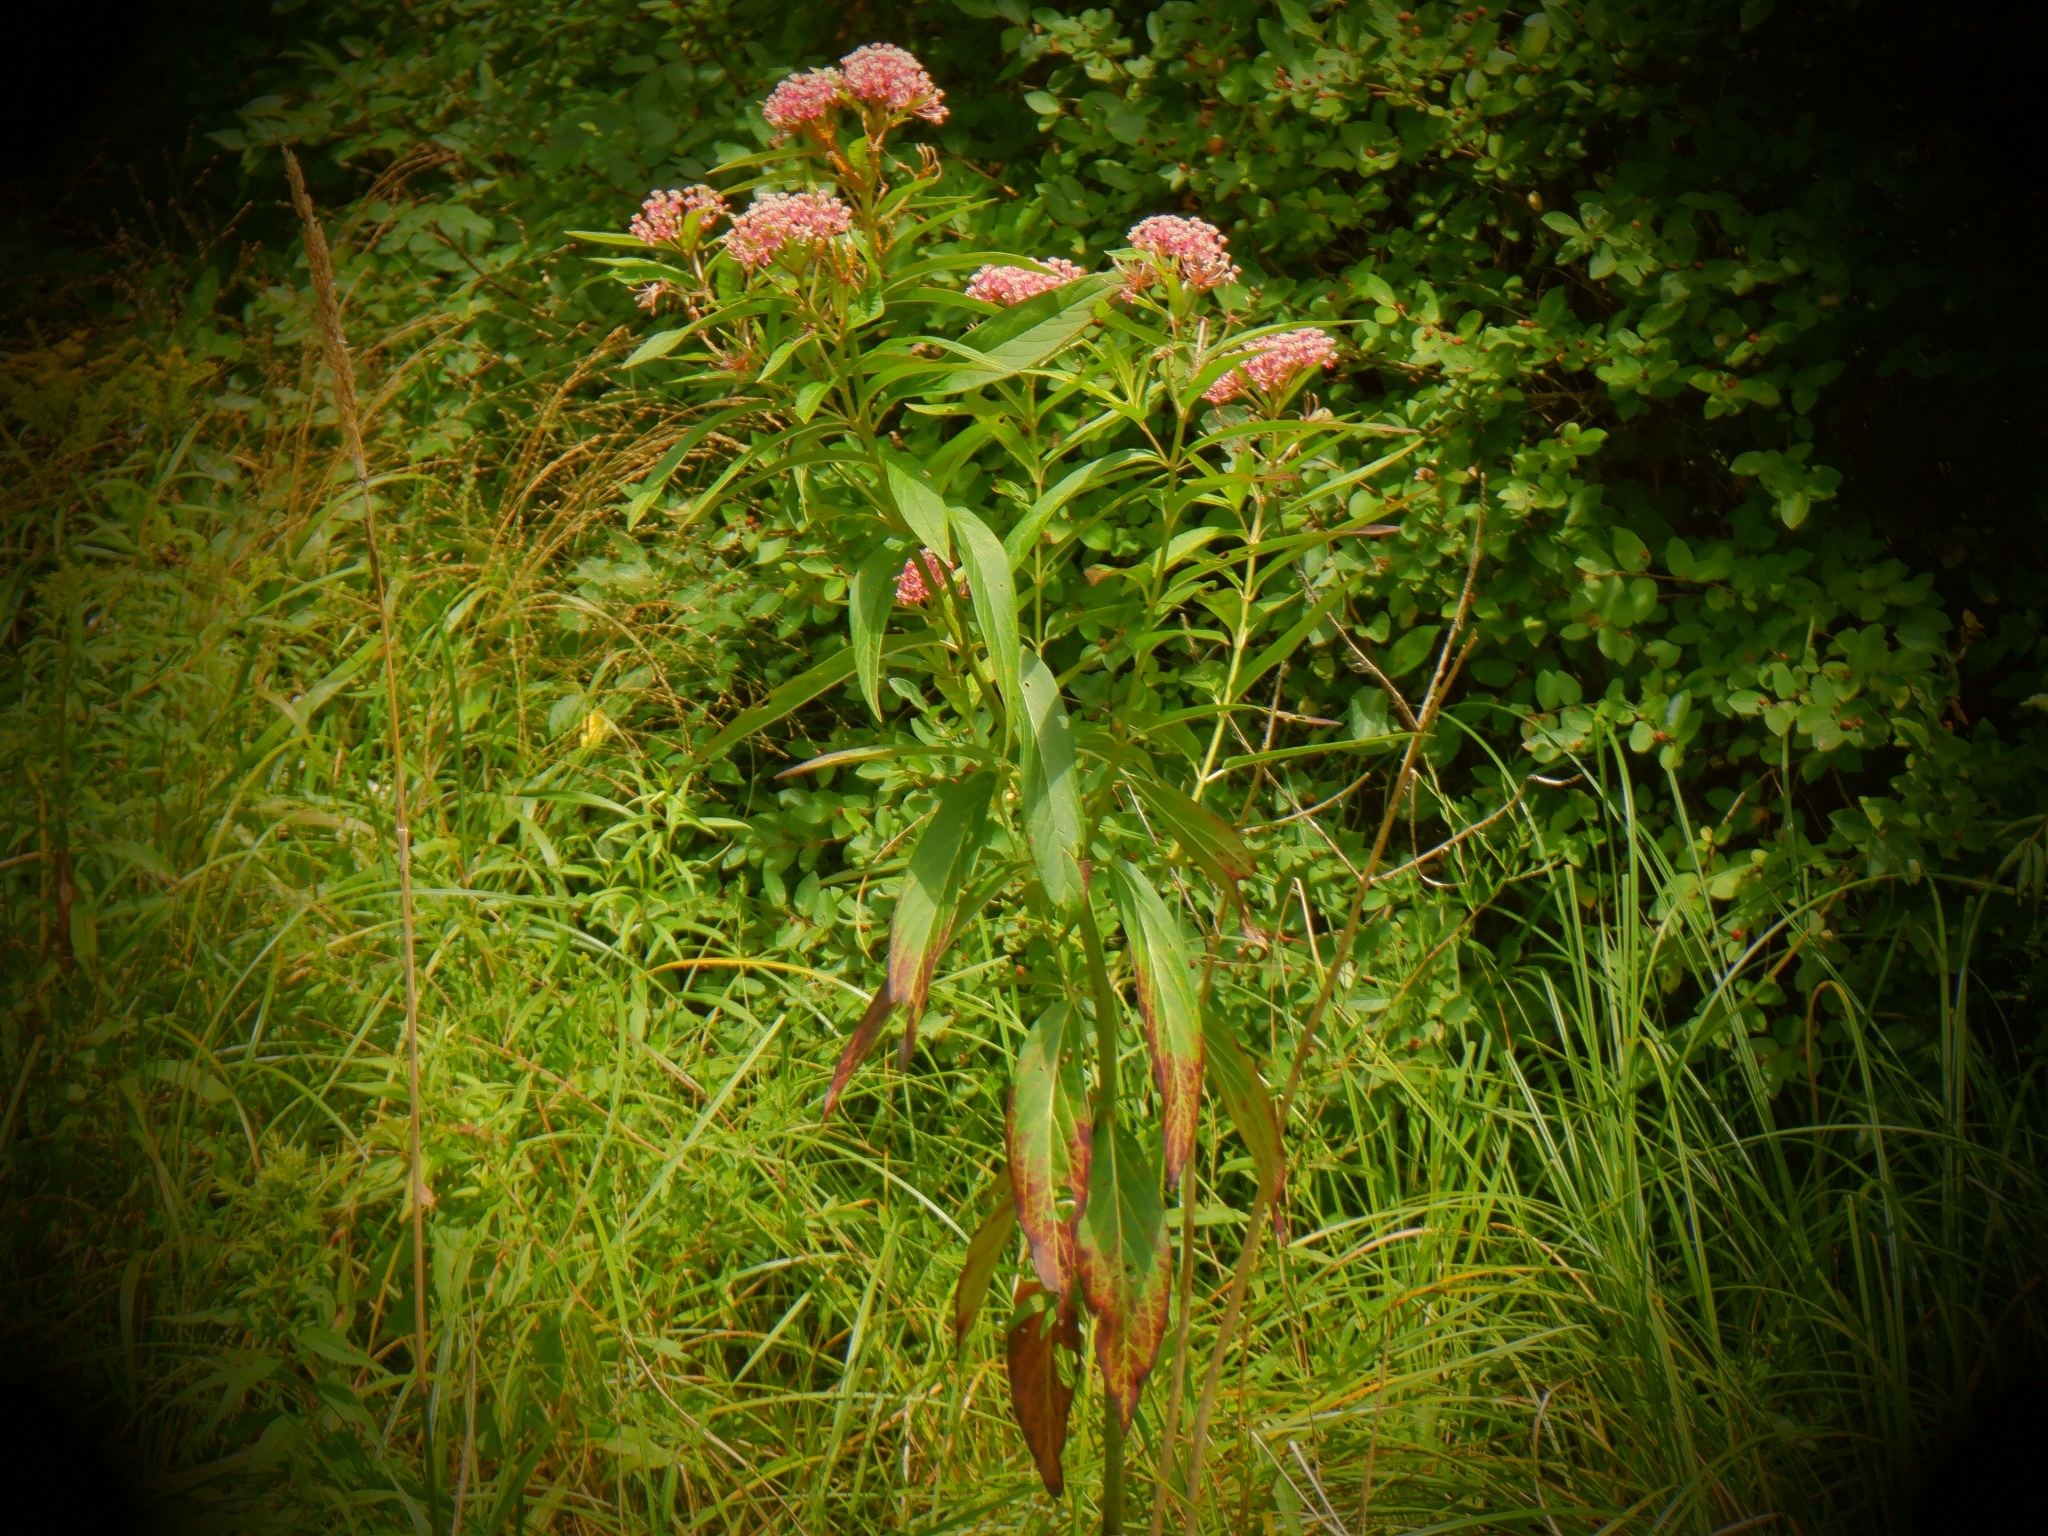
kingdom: Plantae
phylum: Tracheophyta
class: Magnoliopsida
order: Gentianales
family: Apocynaceae
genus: Asclepias
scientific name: Asclepias incarnata
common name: Swamp milkweed
